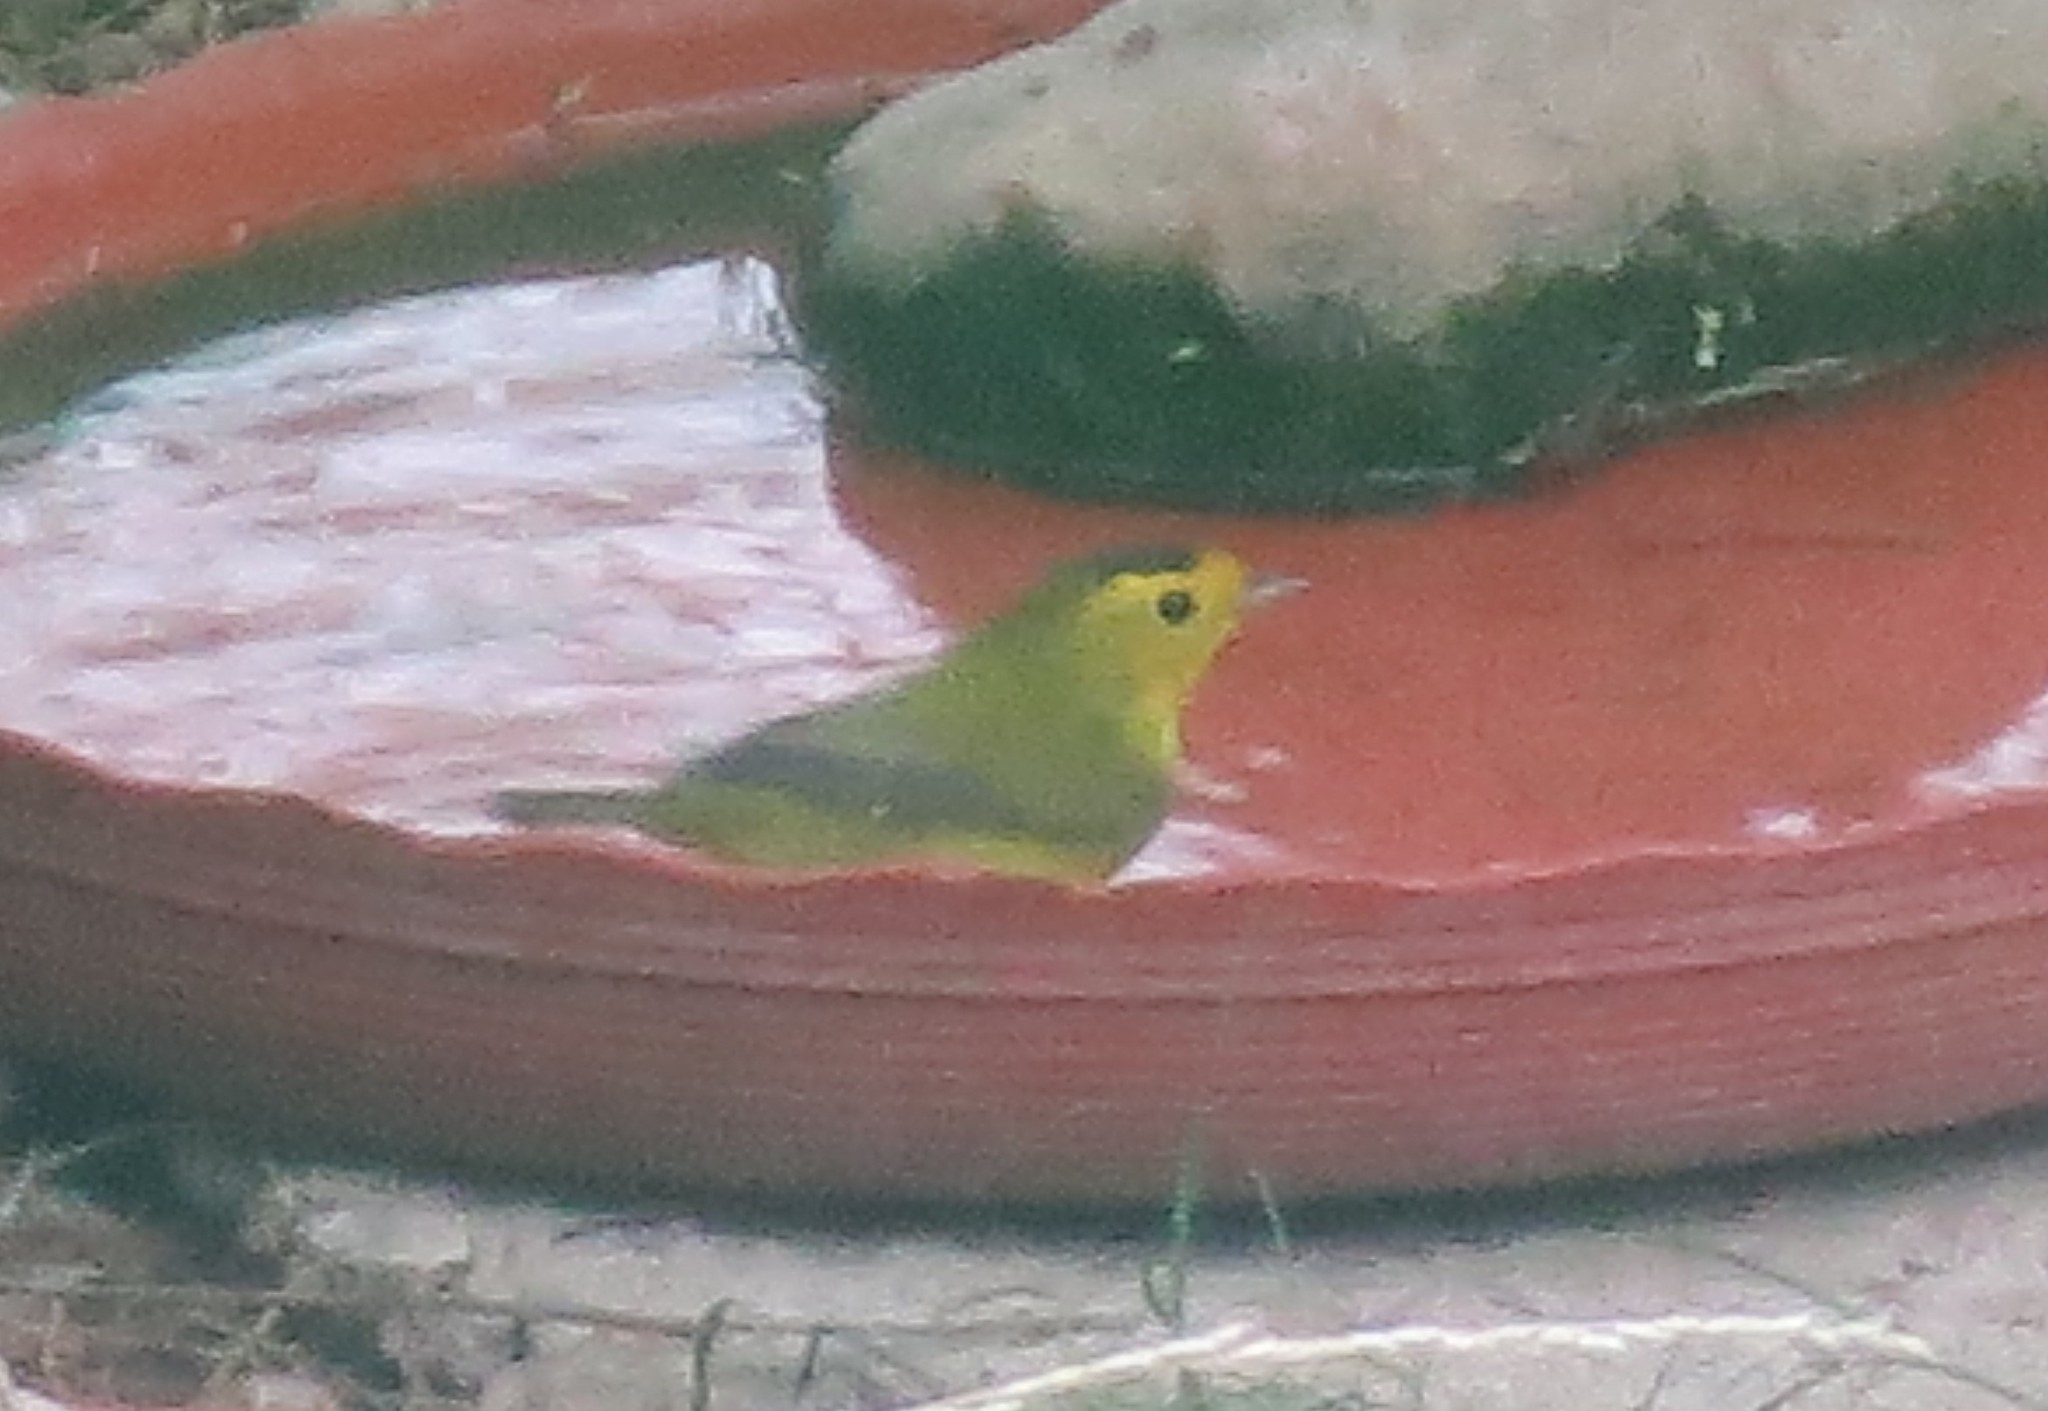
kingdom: Animalia
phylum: Chordata
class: Aves
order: Passeriformes
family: Parulidae
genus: Cardellina
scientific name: Cardellina pusilla
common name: Wilson's warbler
